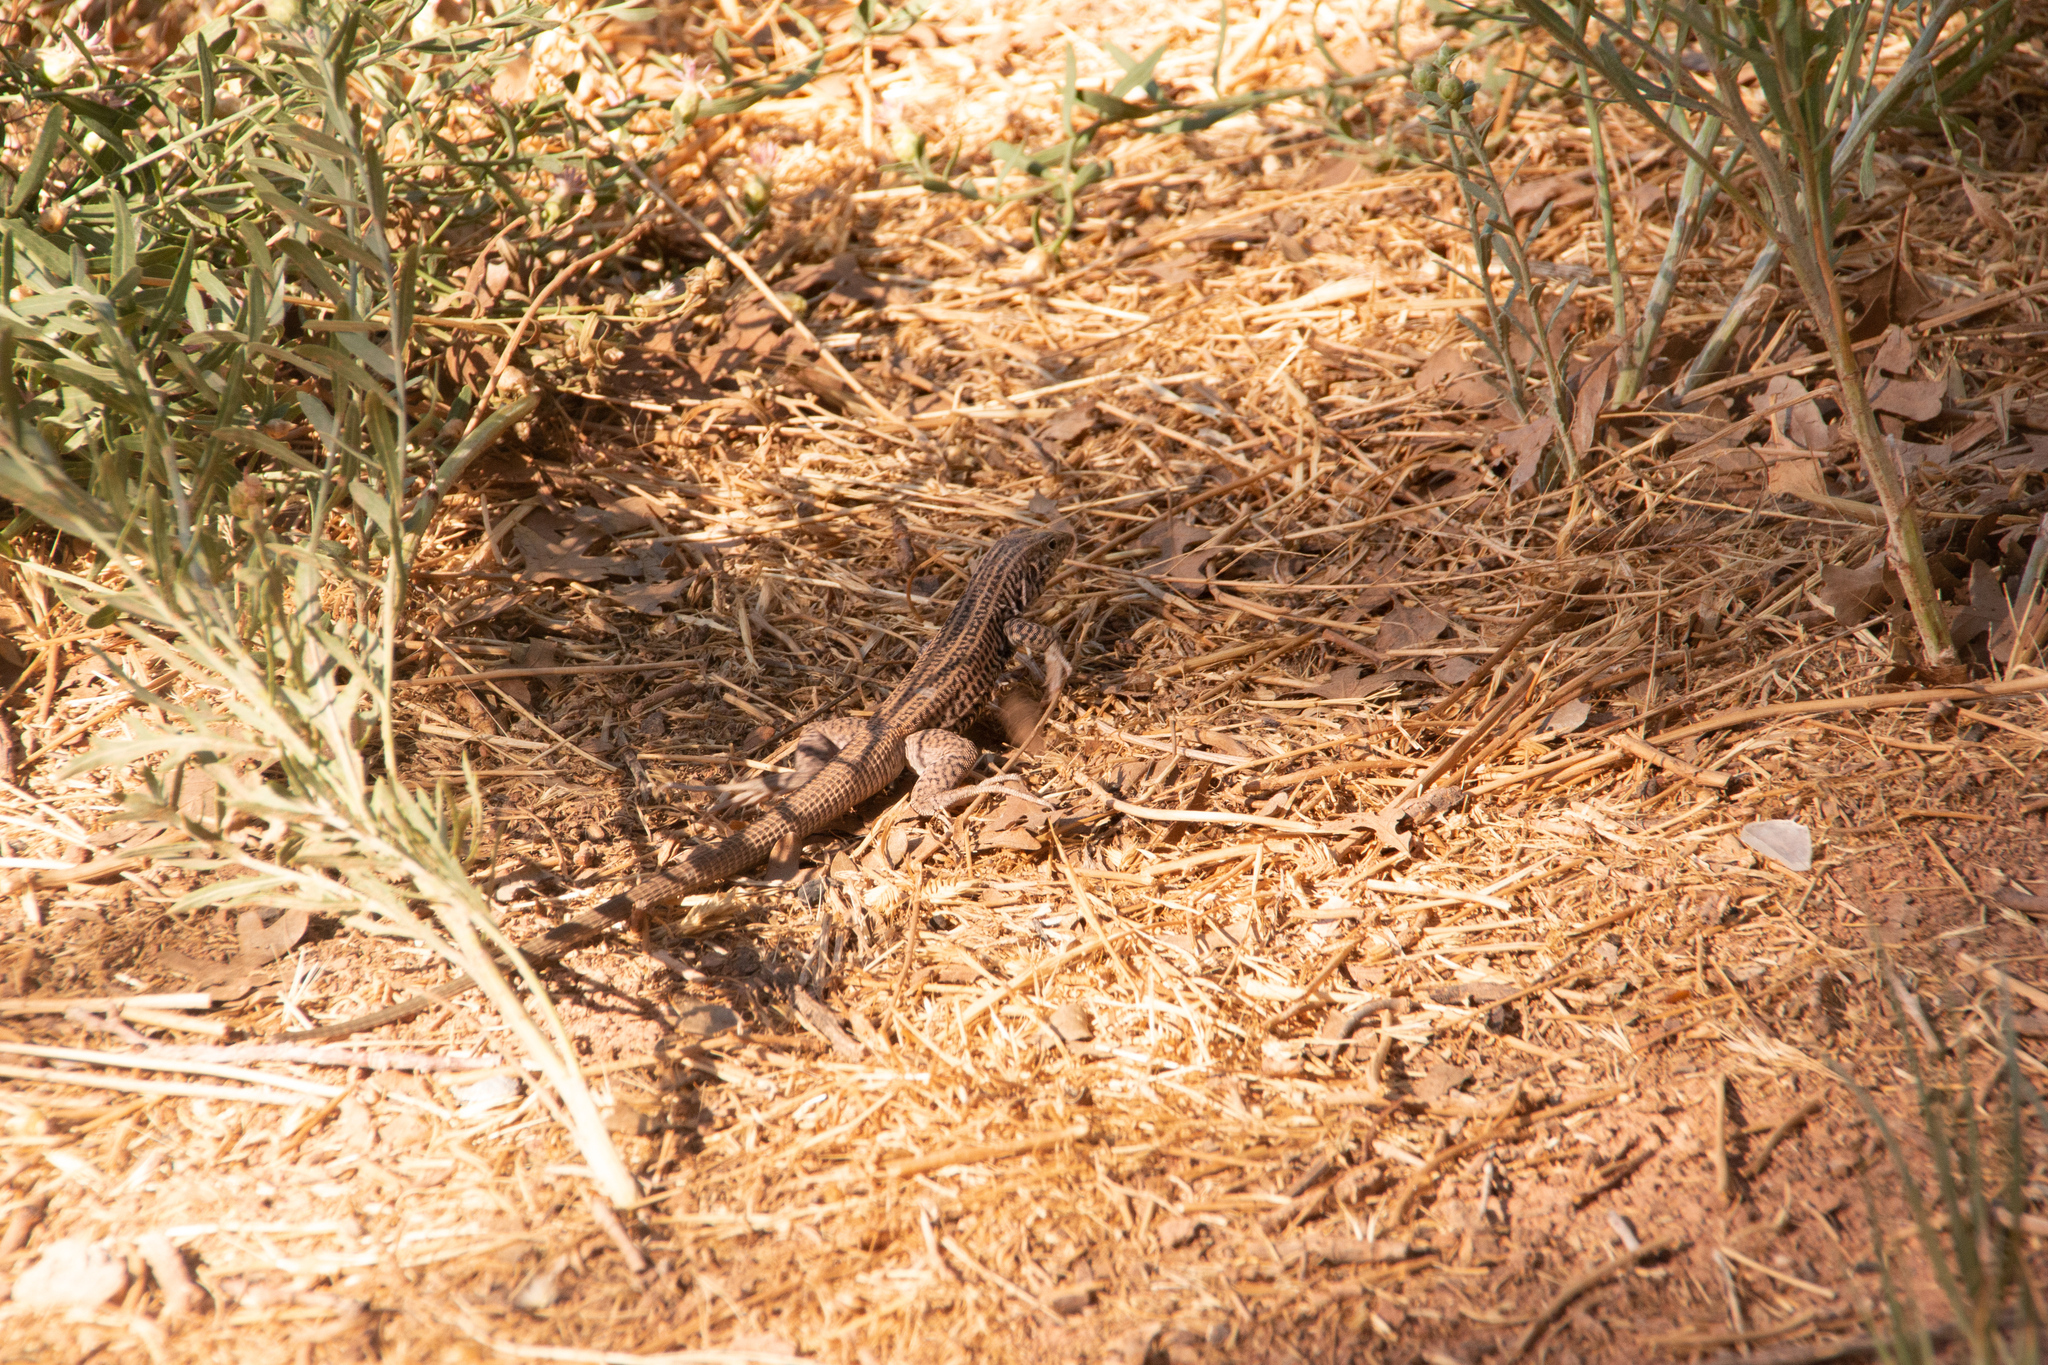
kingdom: Animalia
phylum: Chordata
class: Squamata
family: Teiidae
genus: Aspidoscelis
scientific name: Aspidoscelis tigris
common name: Tiger whiptail
